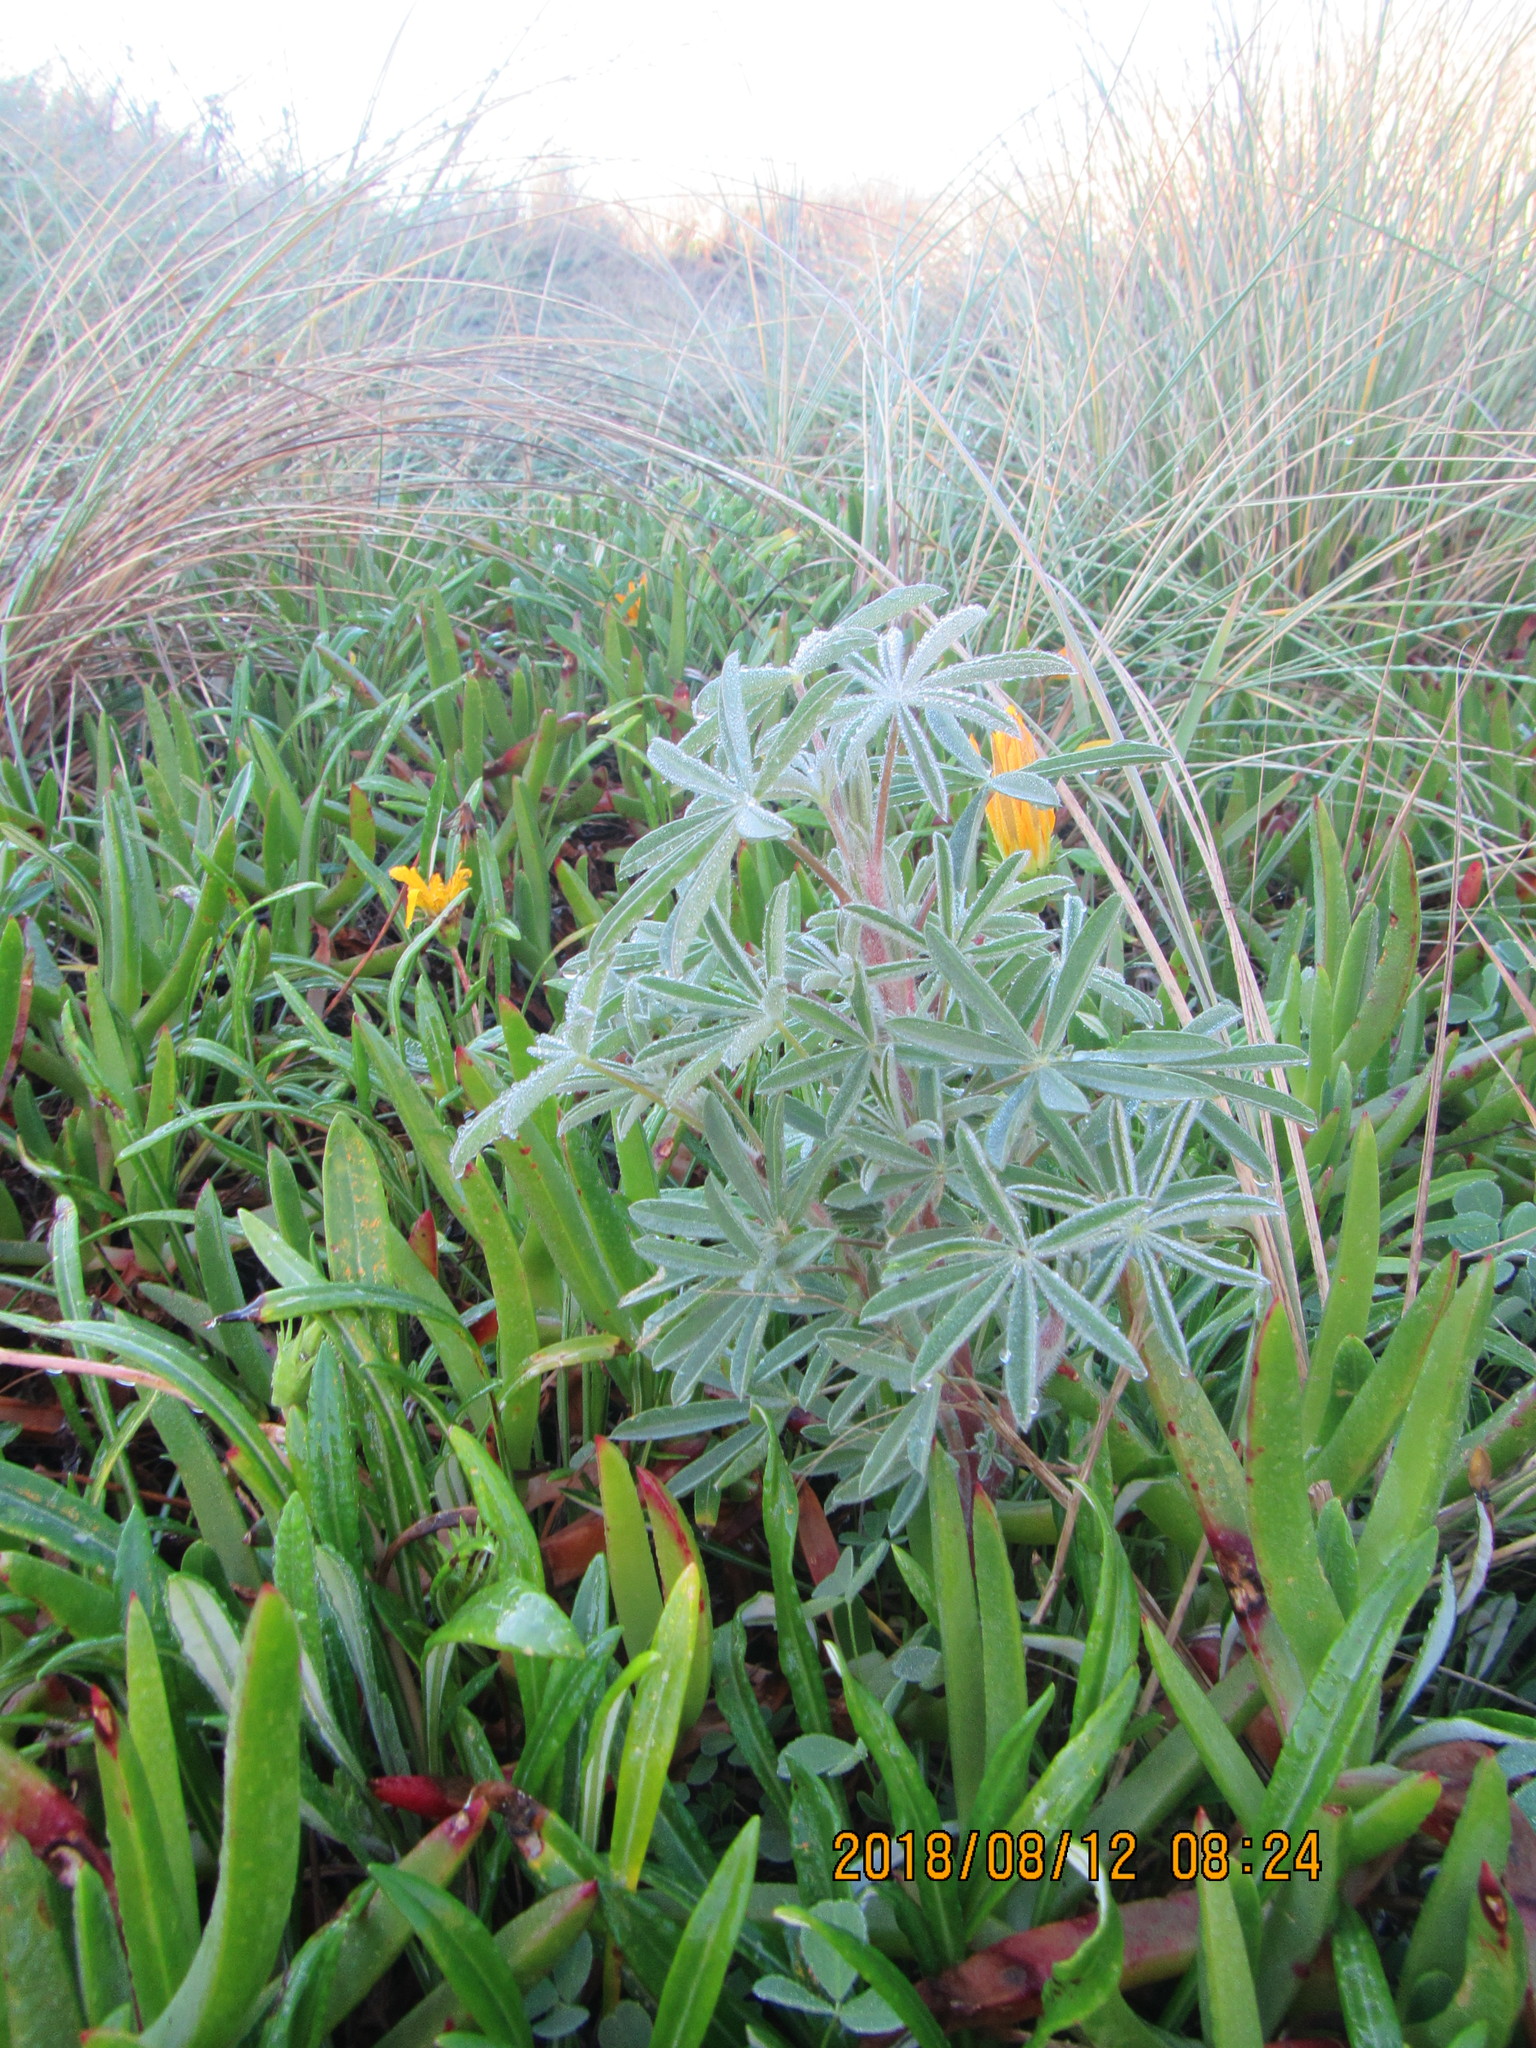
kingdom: Plantae
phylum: Tracheophyta
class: Magnoliopsida
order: Fabales
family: Fabaceae
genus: Lupinus
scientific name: Lupinus arboreus
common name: Yellow bush lupine
